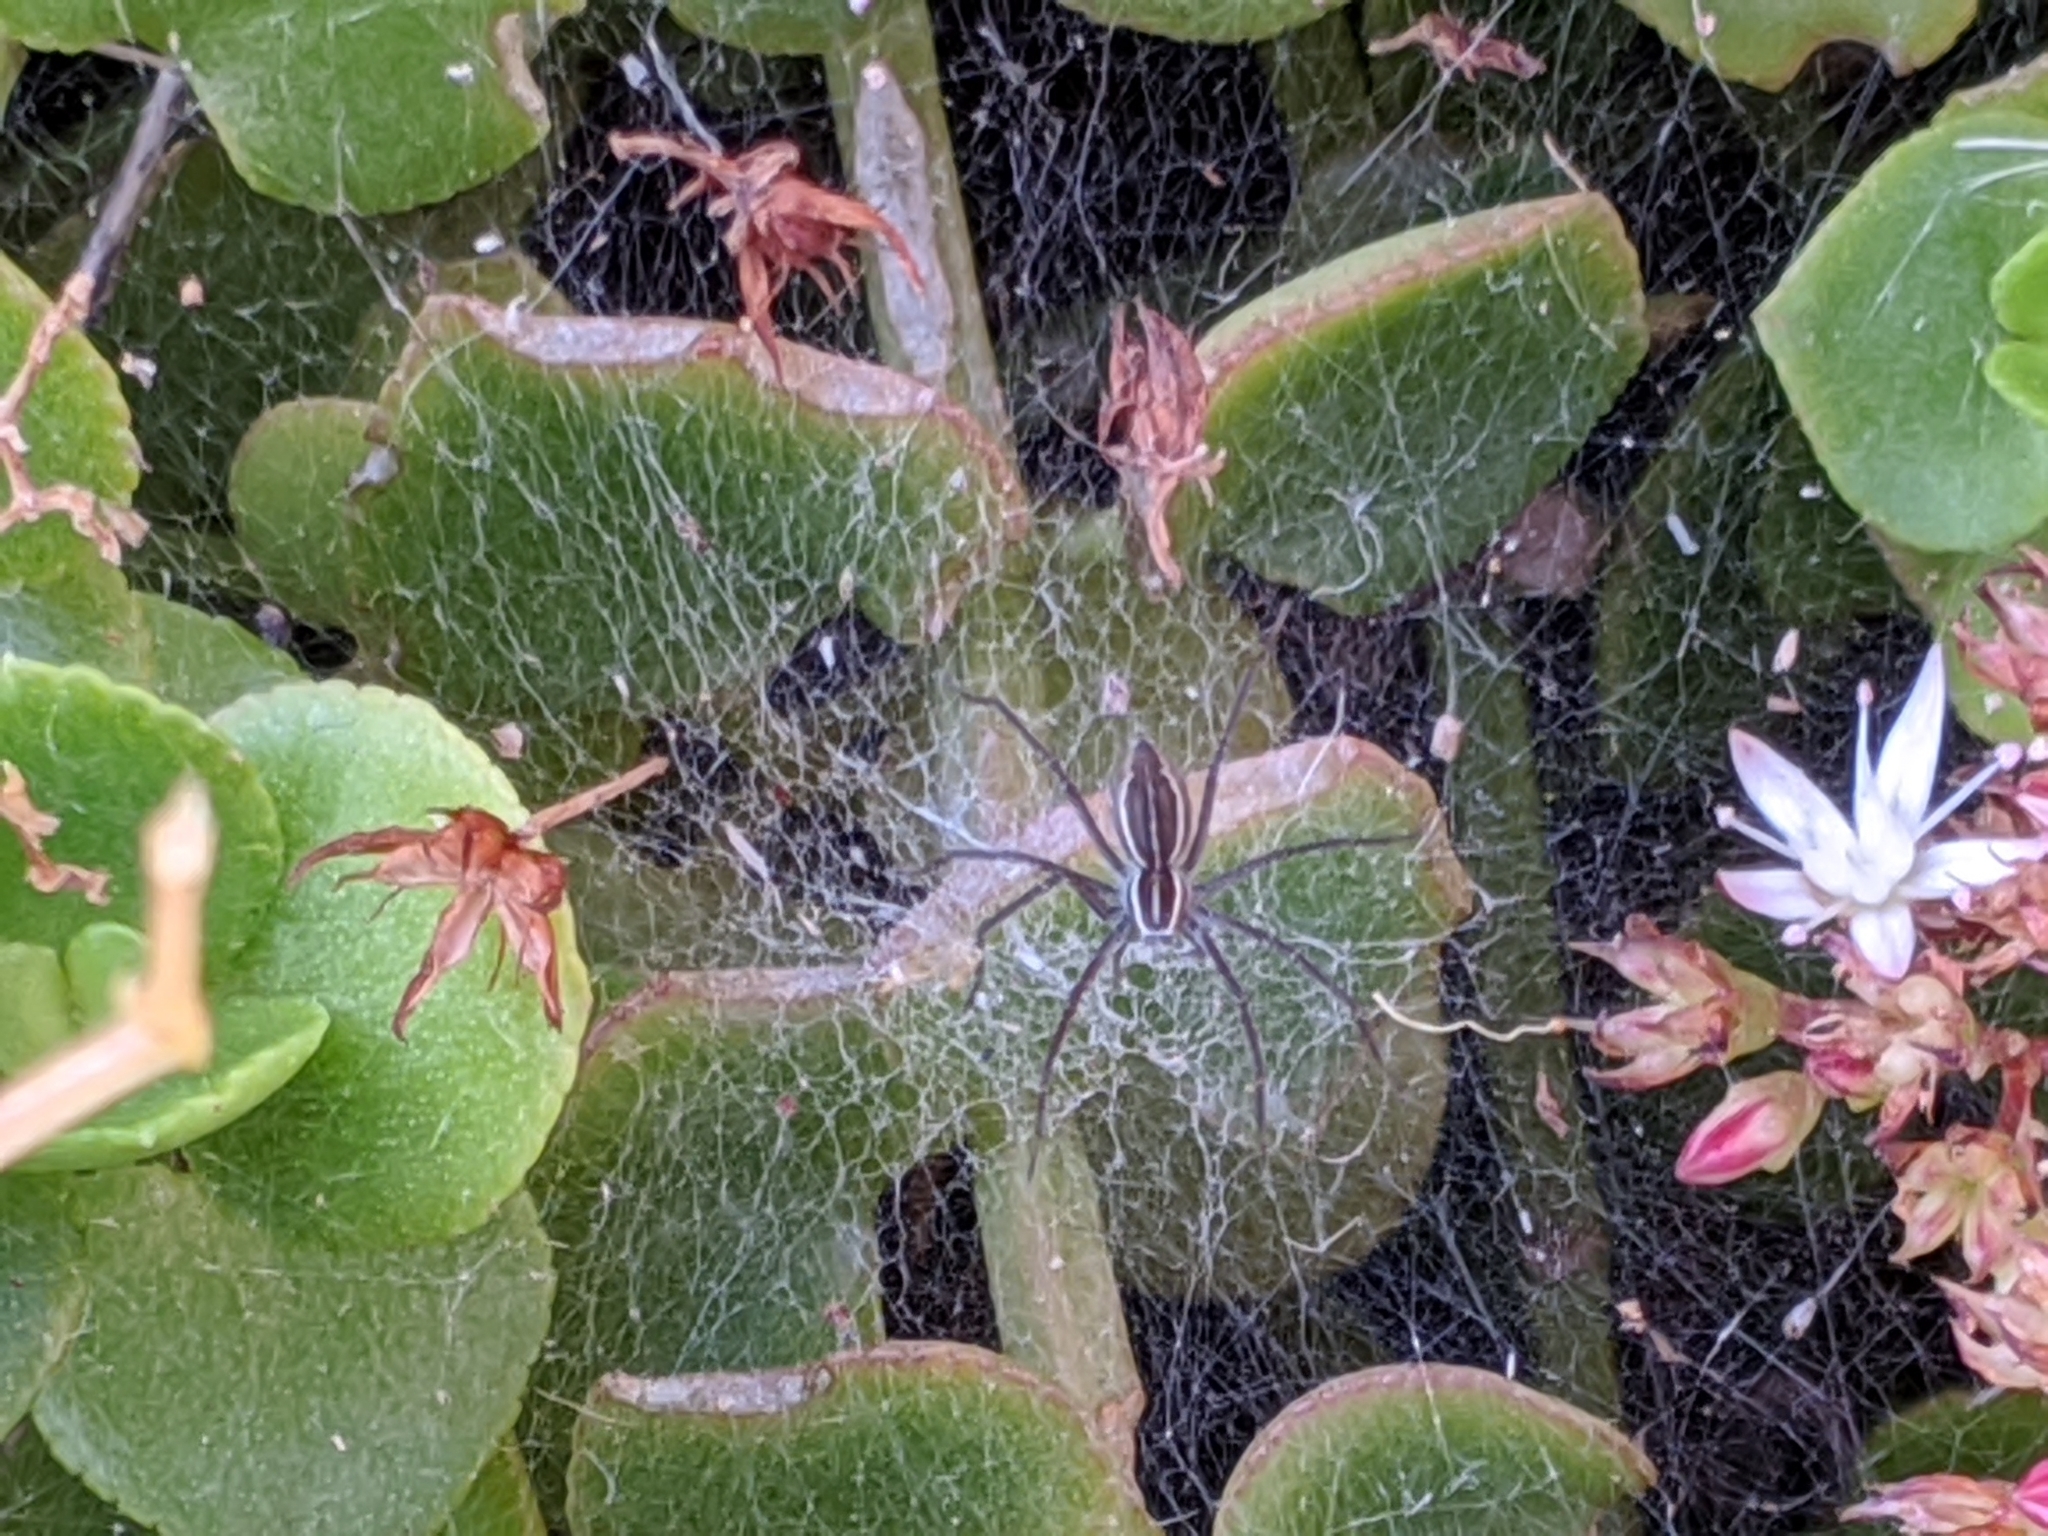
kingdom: Animalia
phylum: Arthropoda
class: Arachnida
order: Araneae
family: Pisauridae
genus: Euprosthenopsis
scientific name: Euprosthenopsis pulchella
